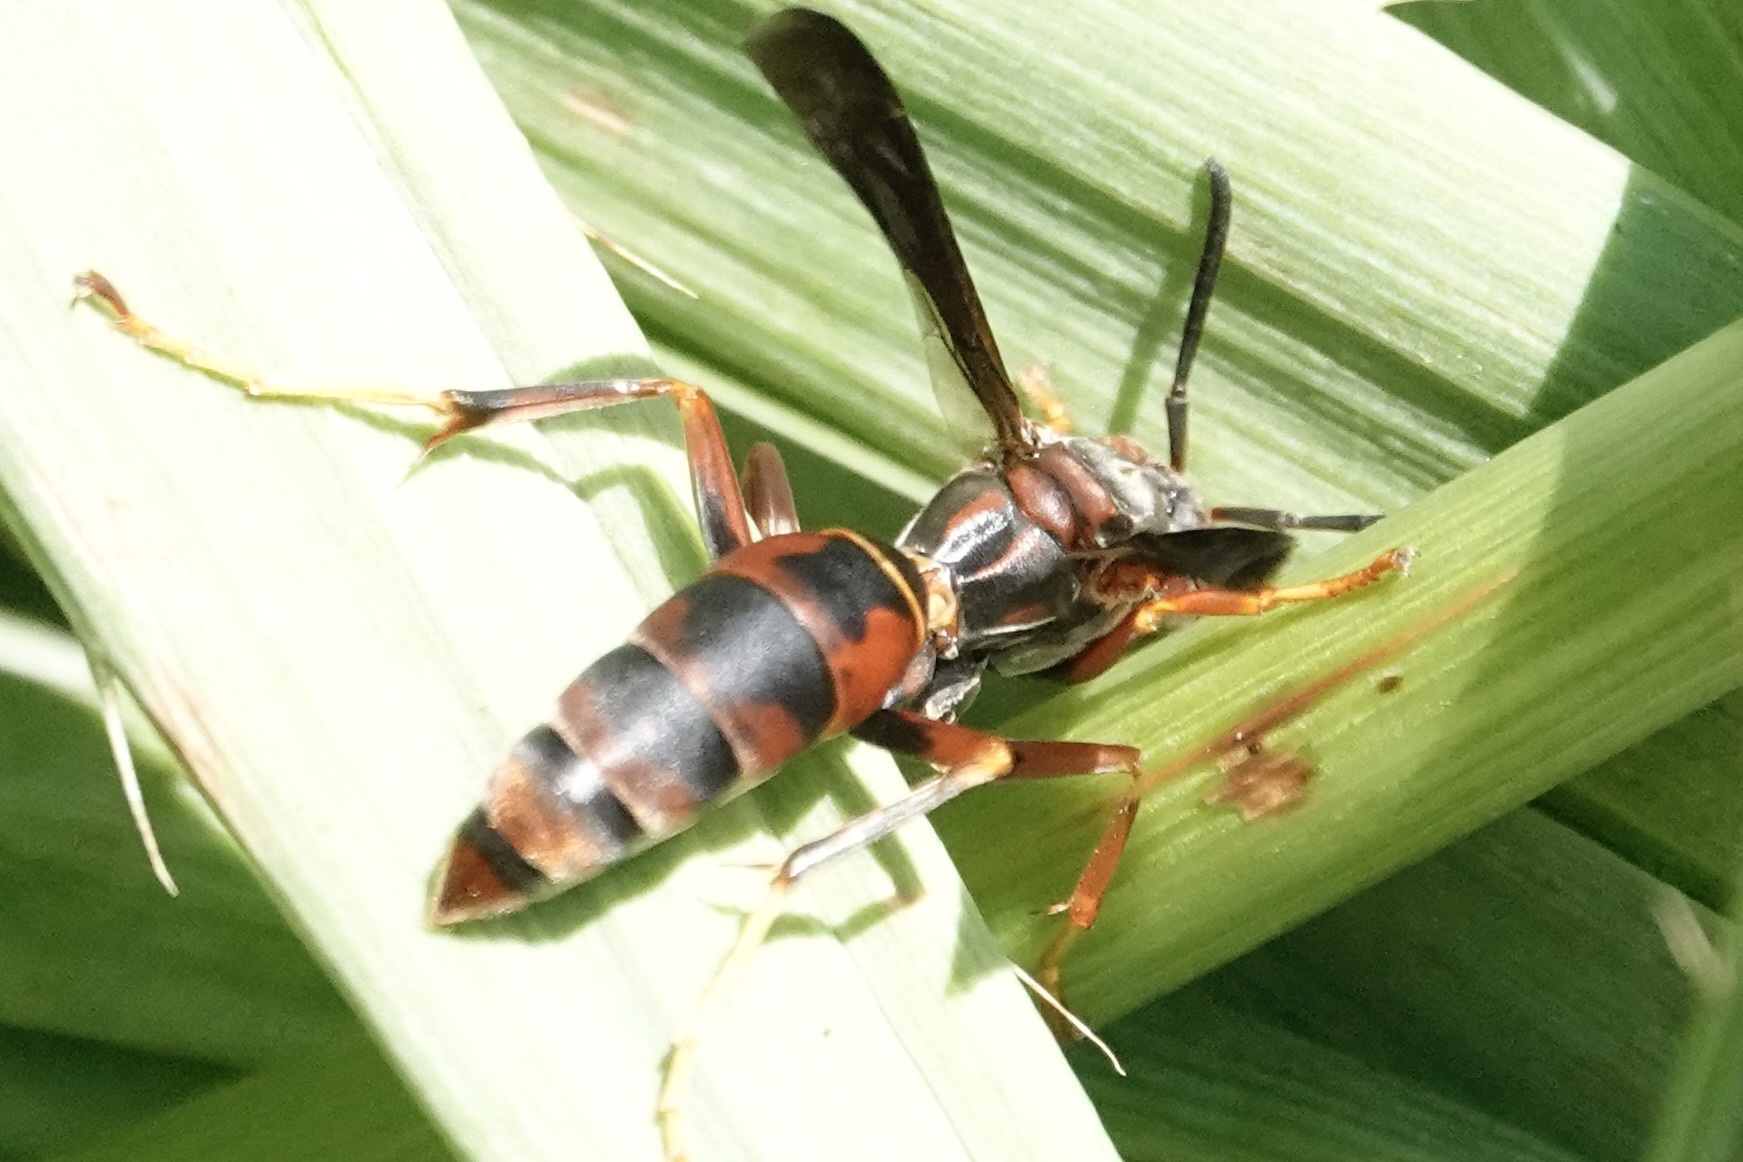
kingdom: Animalia
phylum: Arthropoda
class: Insecta
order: Hymenoptera
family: Eumenidae
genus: Polistes
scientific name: Polistes fuscatus
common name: Dark paper wasp
